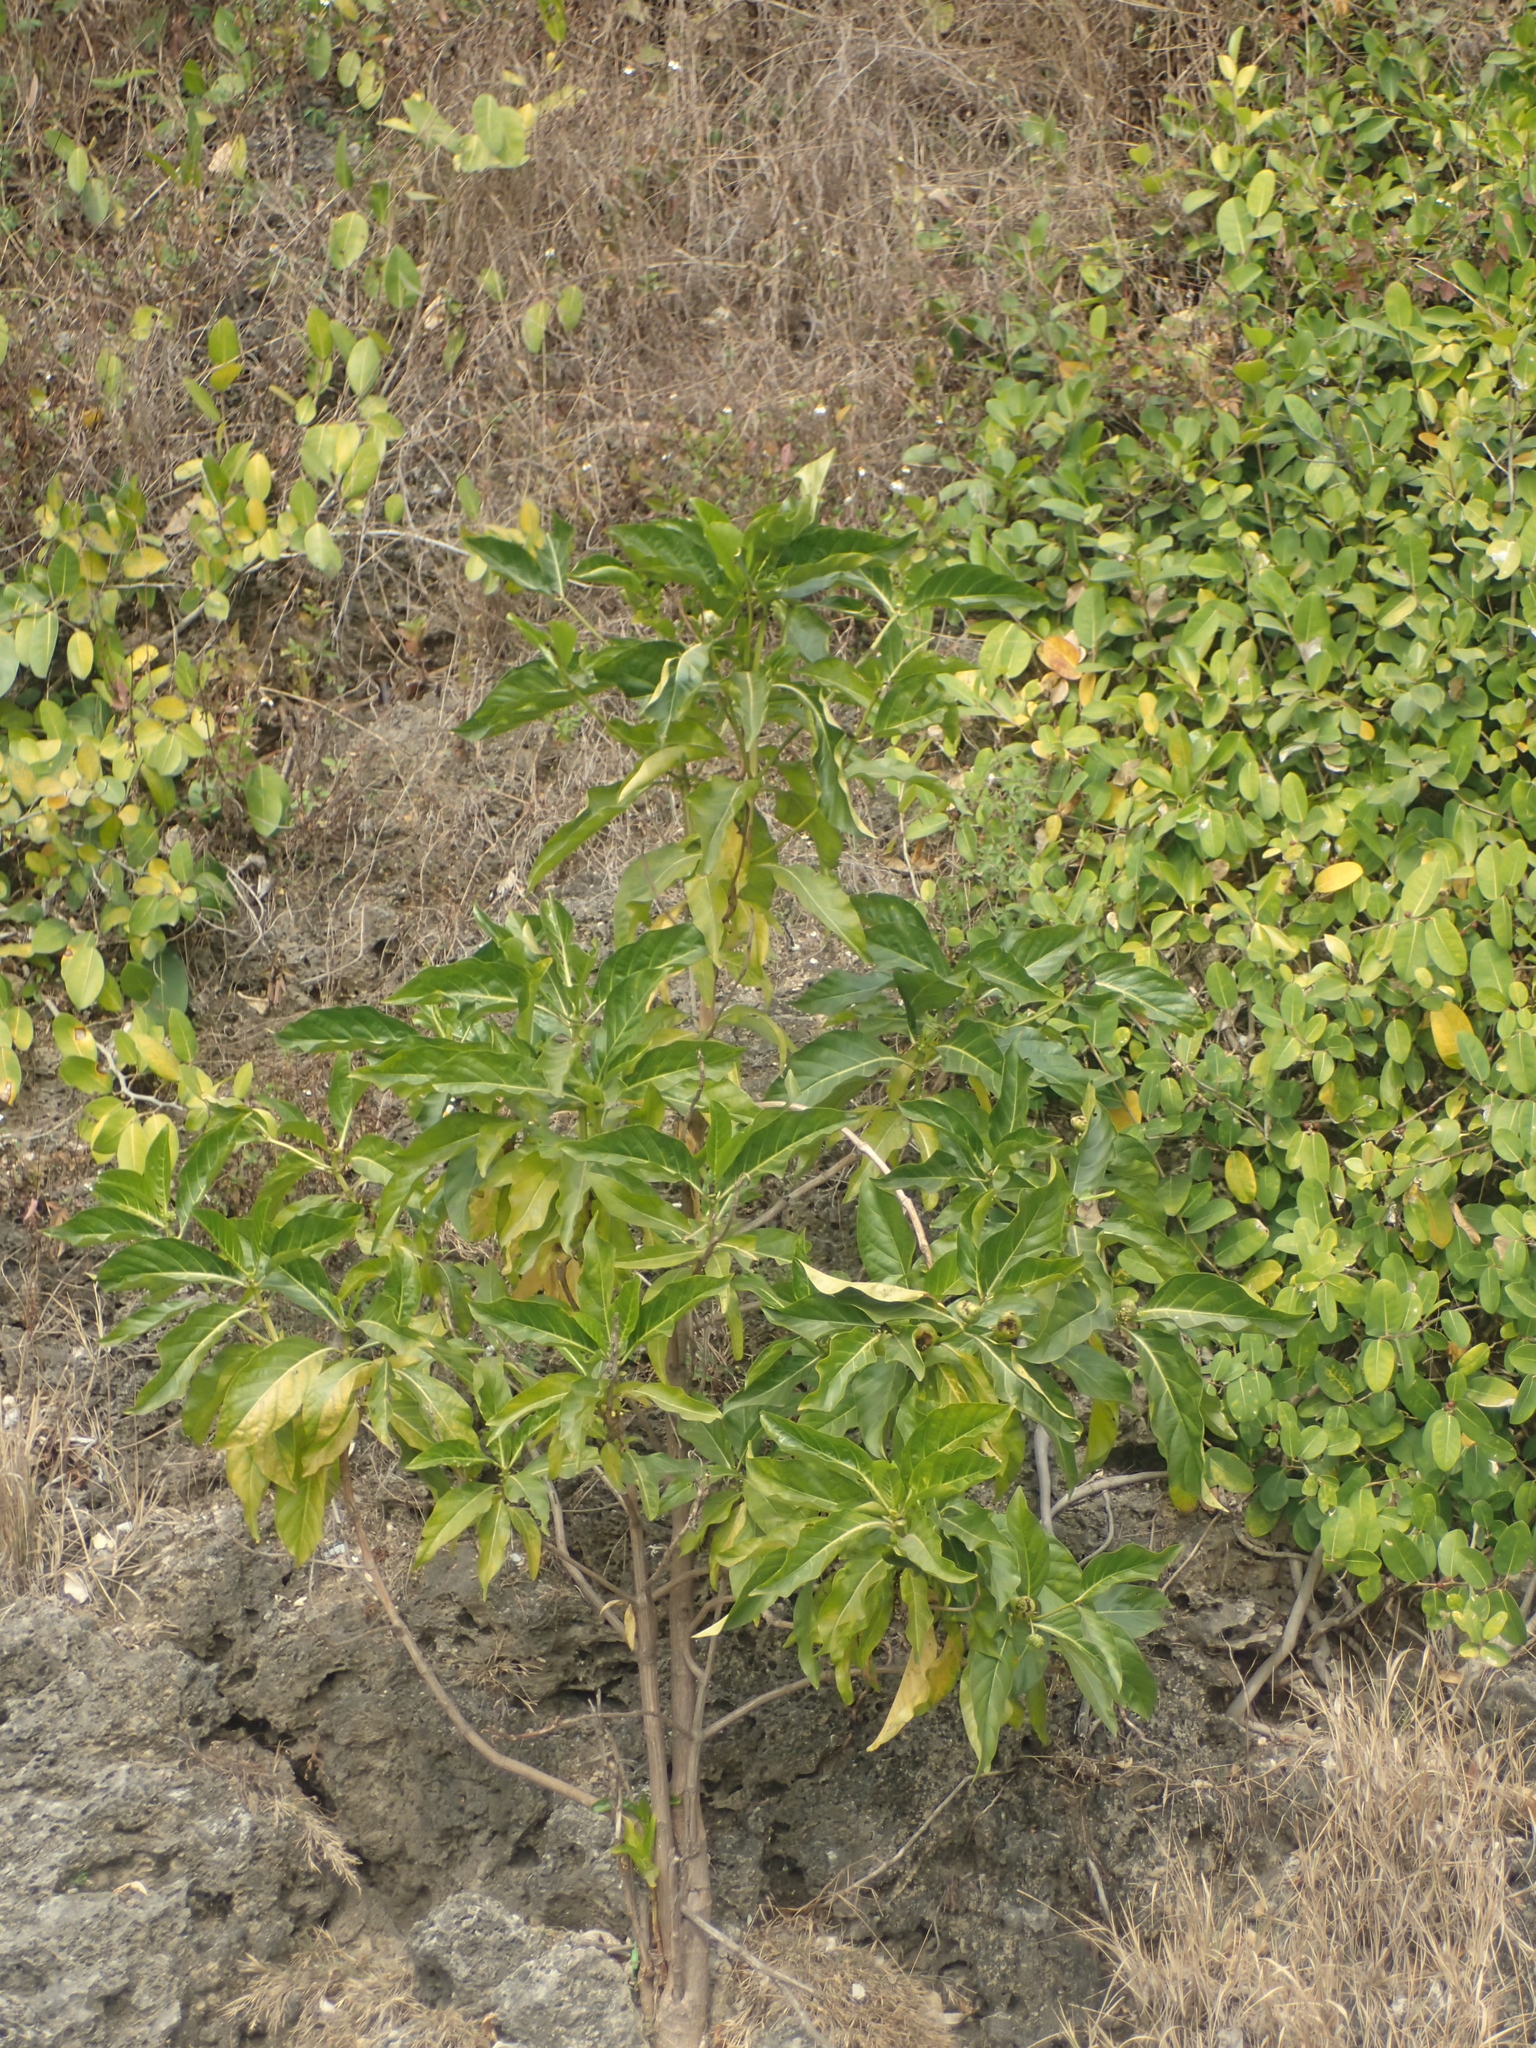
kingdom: Plantae
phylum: Tracheophyta
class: Magnoliopsida
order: Gentianales
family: Rubiaceae
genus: Morinda
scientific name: Morinda citrifolia
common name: Indian-mulberry
